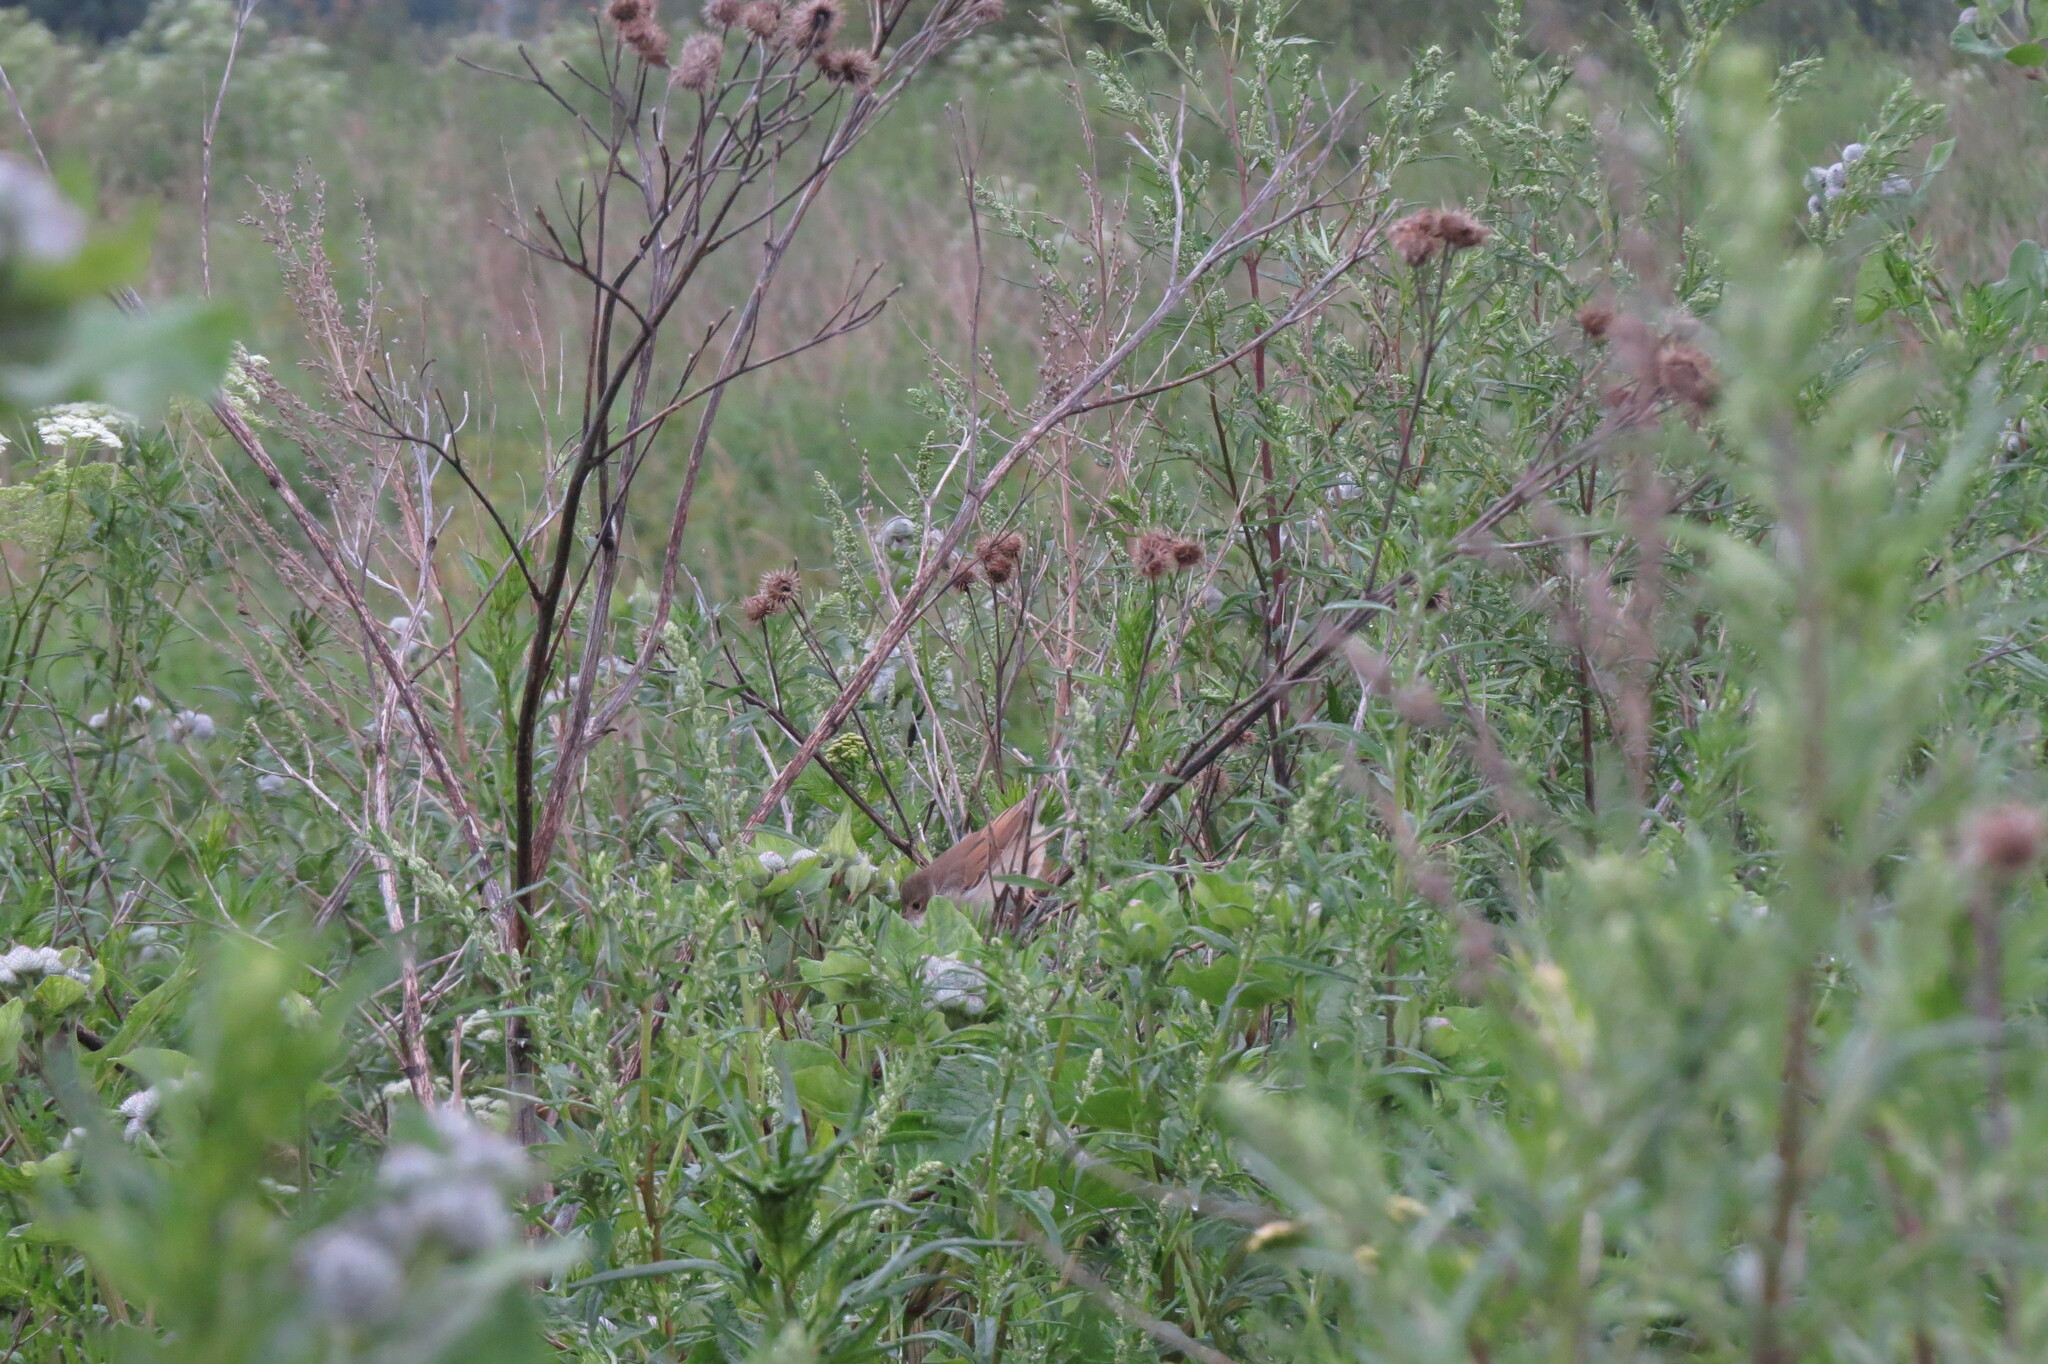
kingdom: Animalia
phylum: Chordata
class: Aves
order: Passeriformes
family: Sylviidae
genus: Sylvia
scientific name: Sylvia communis
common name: Common whitethroat
